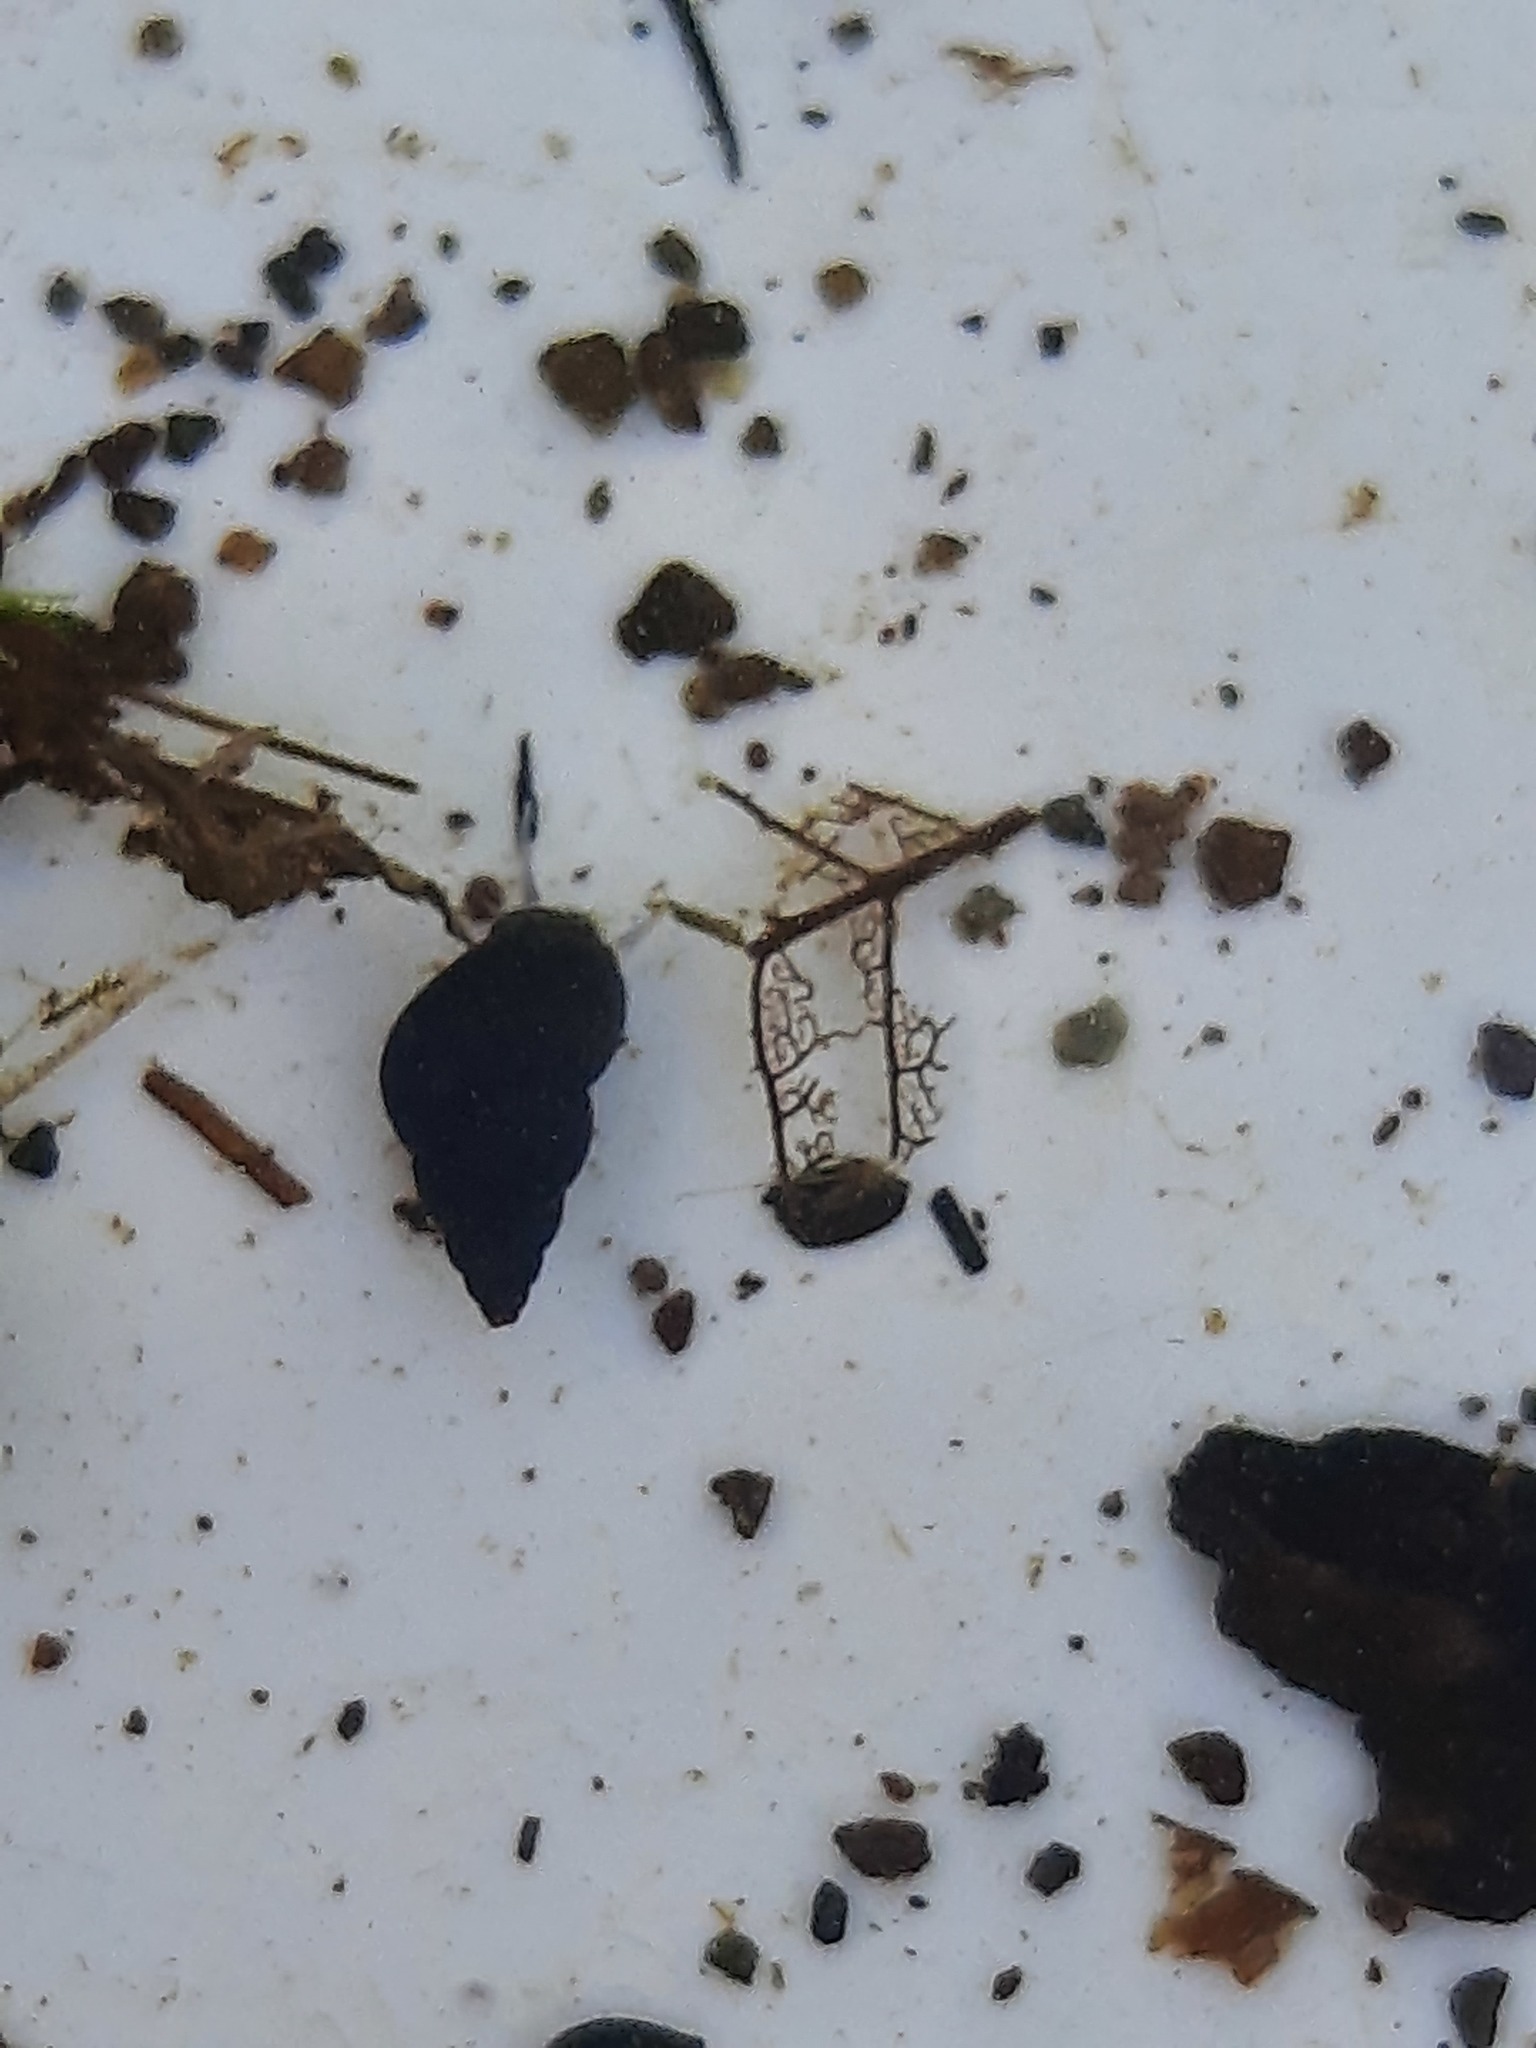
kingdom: Animalia
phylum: Mollusca
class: Gastropoda
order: Littorinimorpha
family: Tateidae
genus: Potamopyrgus
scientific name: Potamopyrgus antipodarum
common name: Jenkins' spire snail
